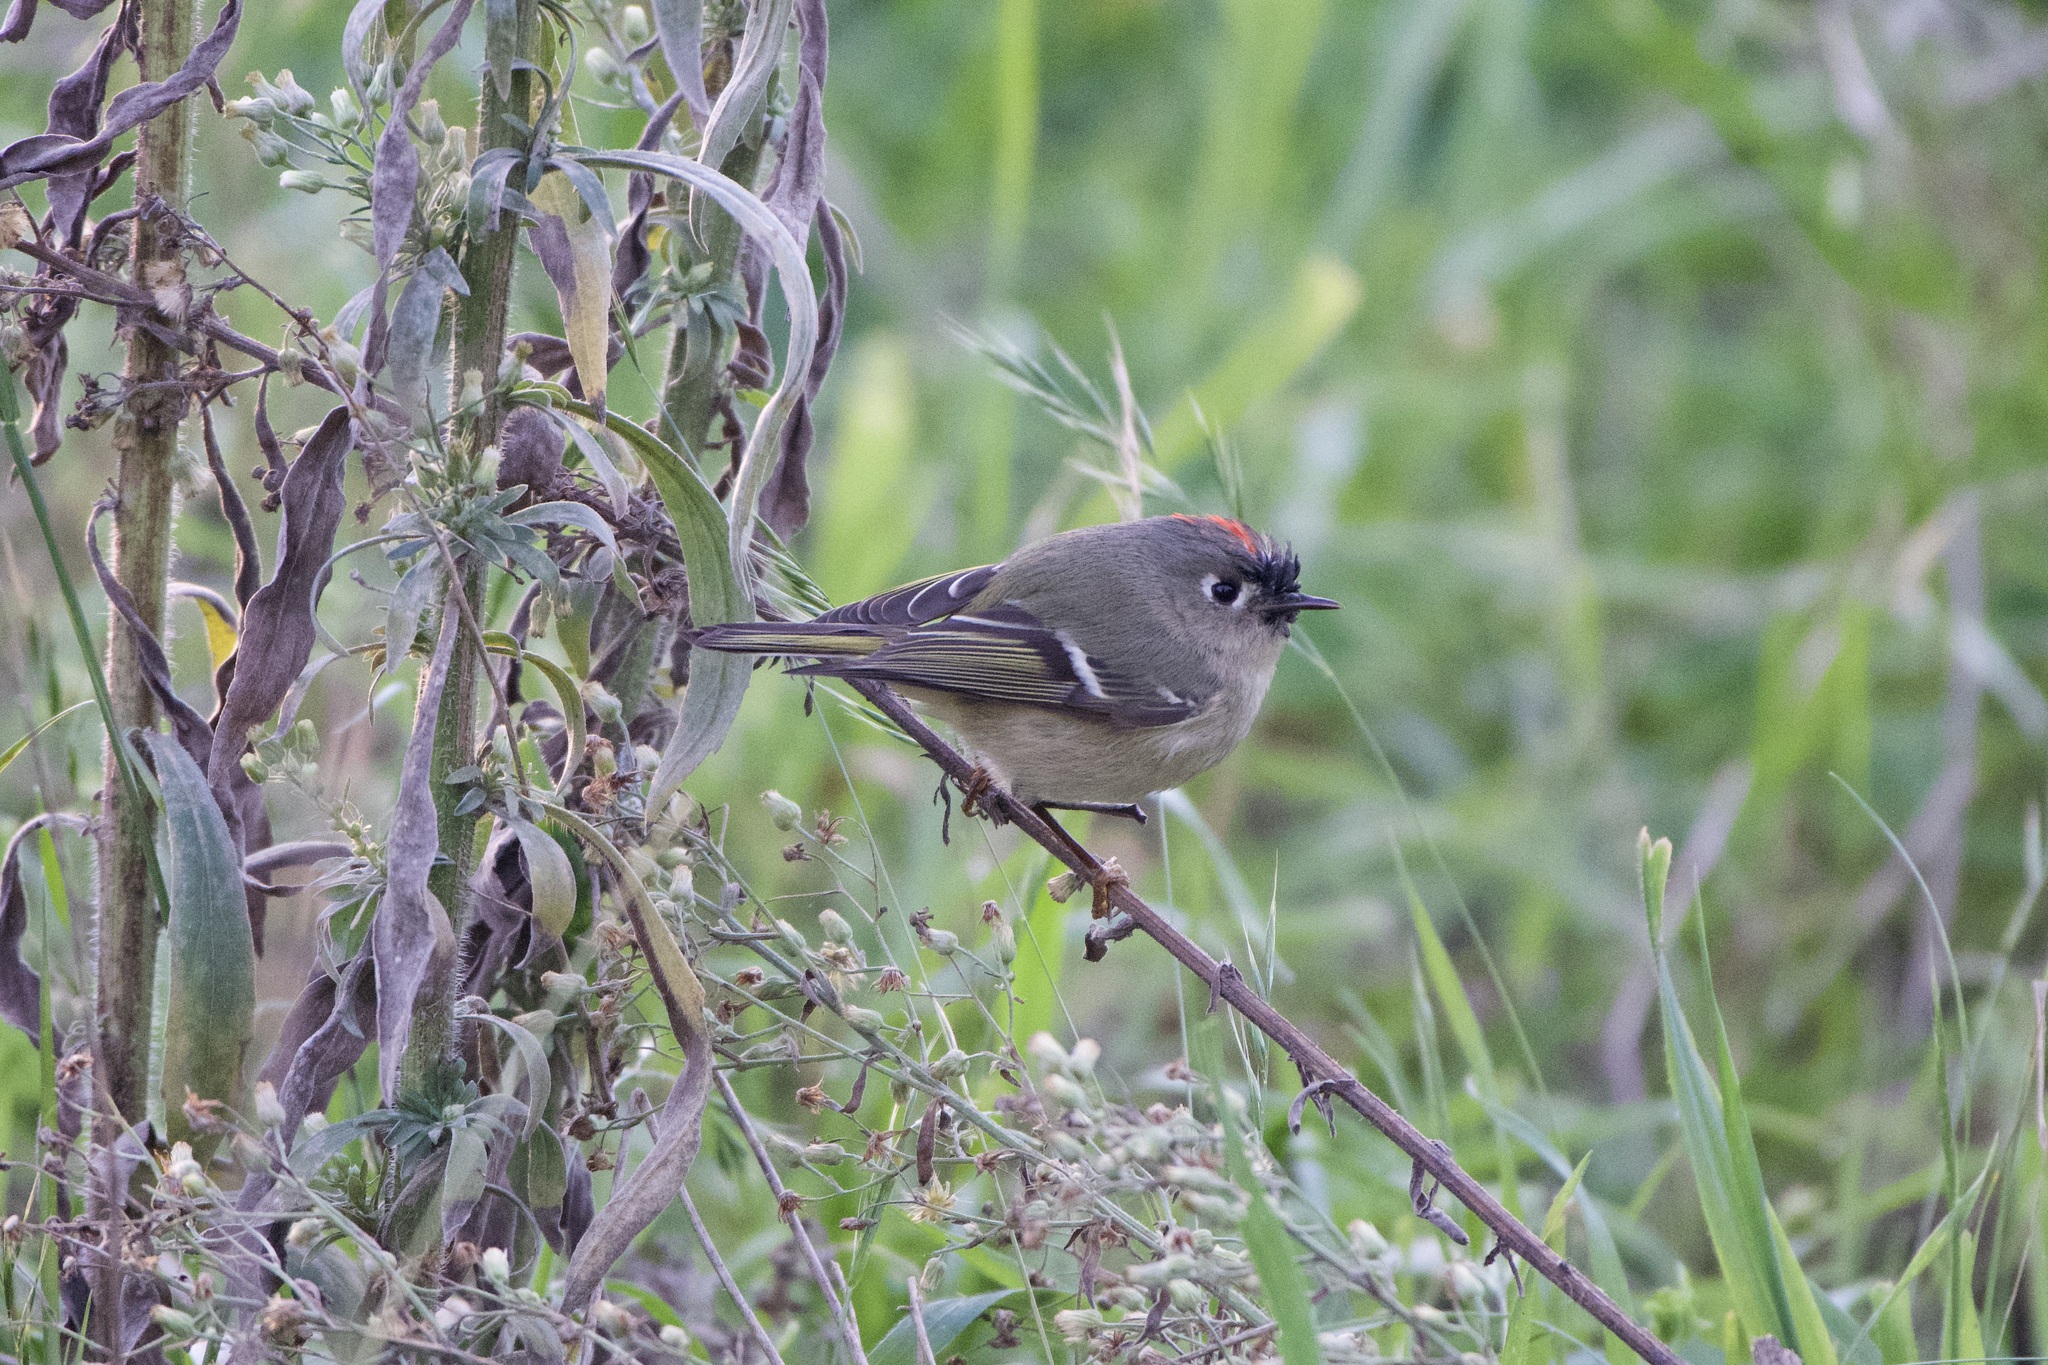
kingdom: Animalia
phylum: Chordata
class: Aves
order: Passeriformes
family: Regulidae
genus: Regulus
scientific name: Regulus calendula
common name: Ruby-crowned kinglet
